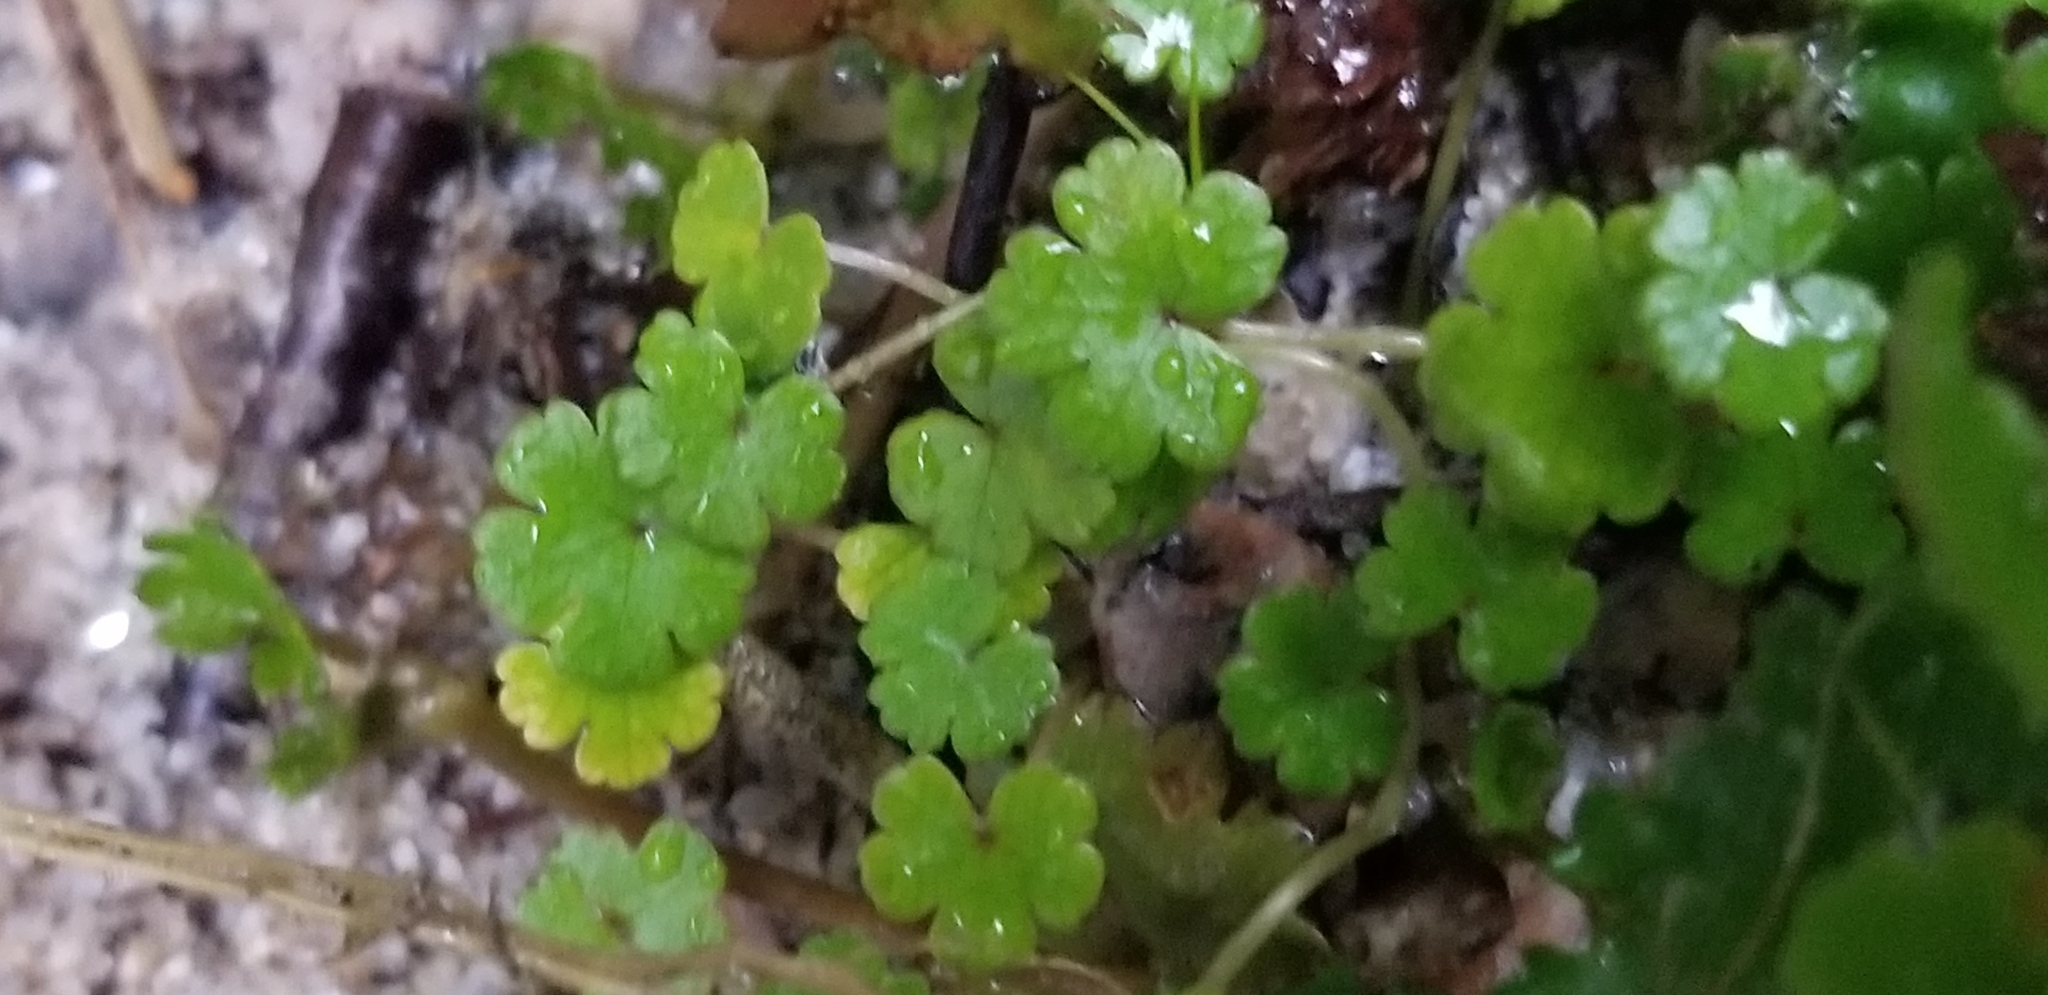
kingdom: Plantae
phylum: Tracheophyta
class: Magnoliopsida
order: Apiales
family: Araliaceae
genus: Hydrocotyle
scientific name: Hydrocotyle microphylla
